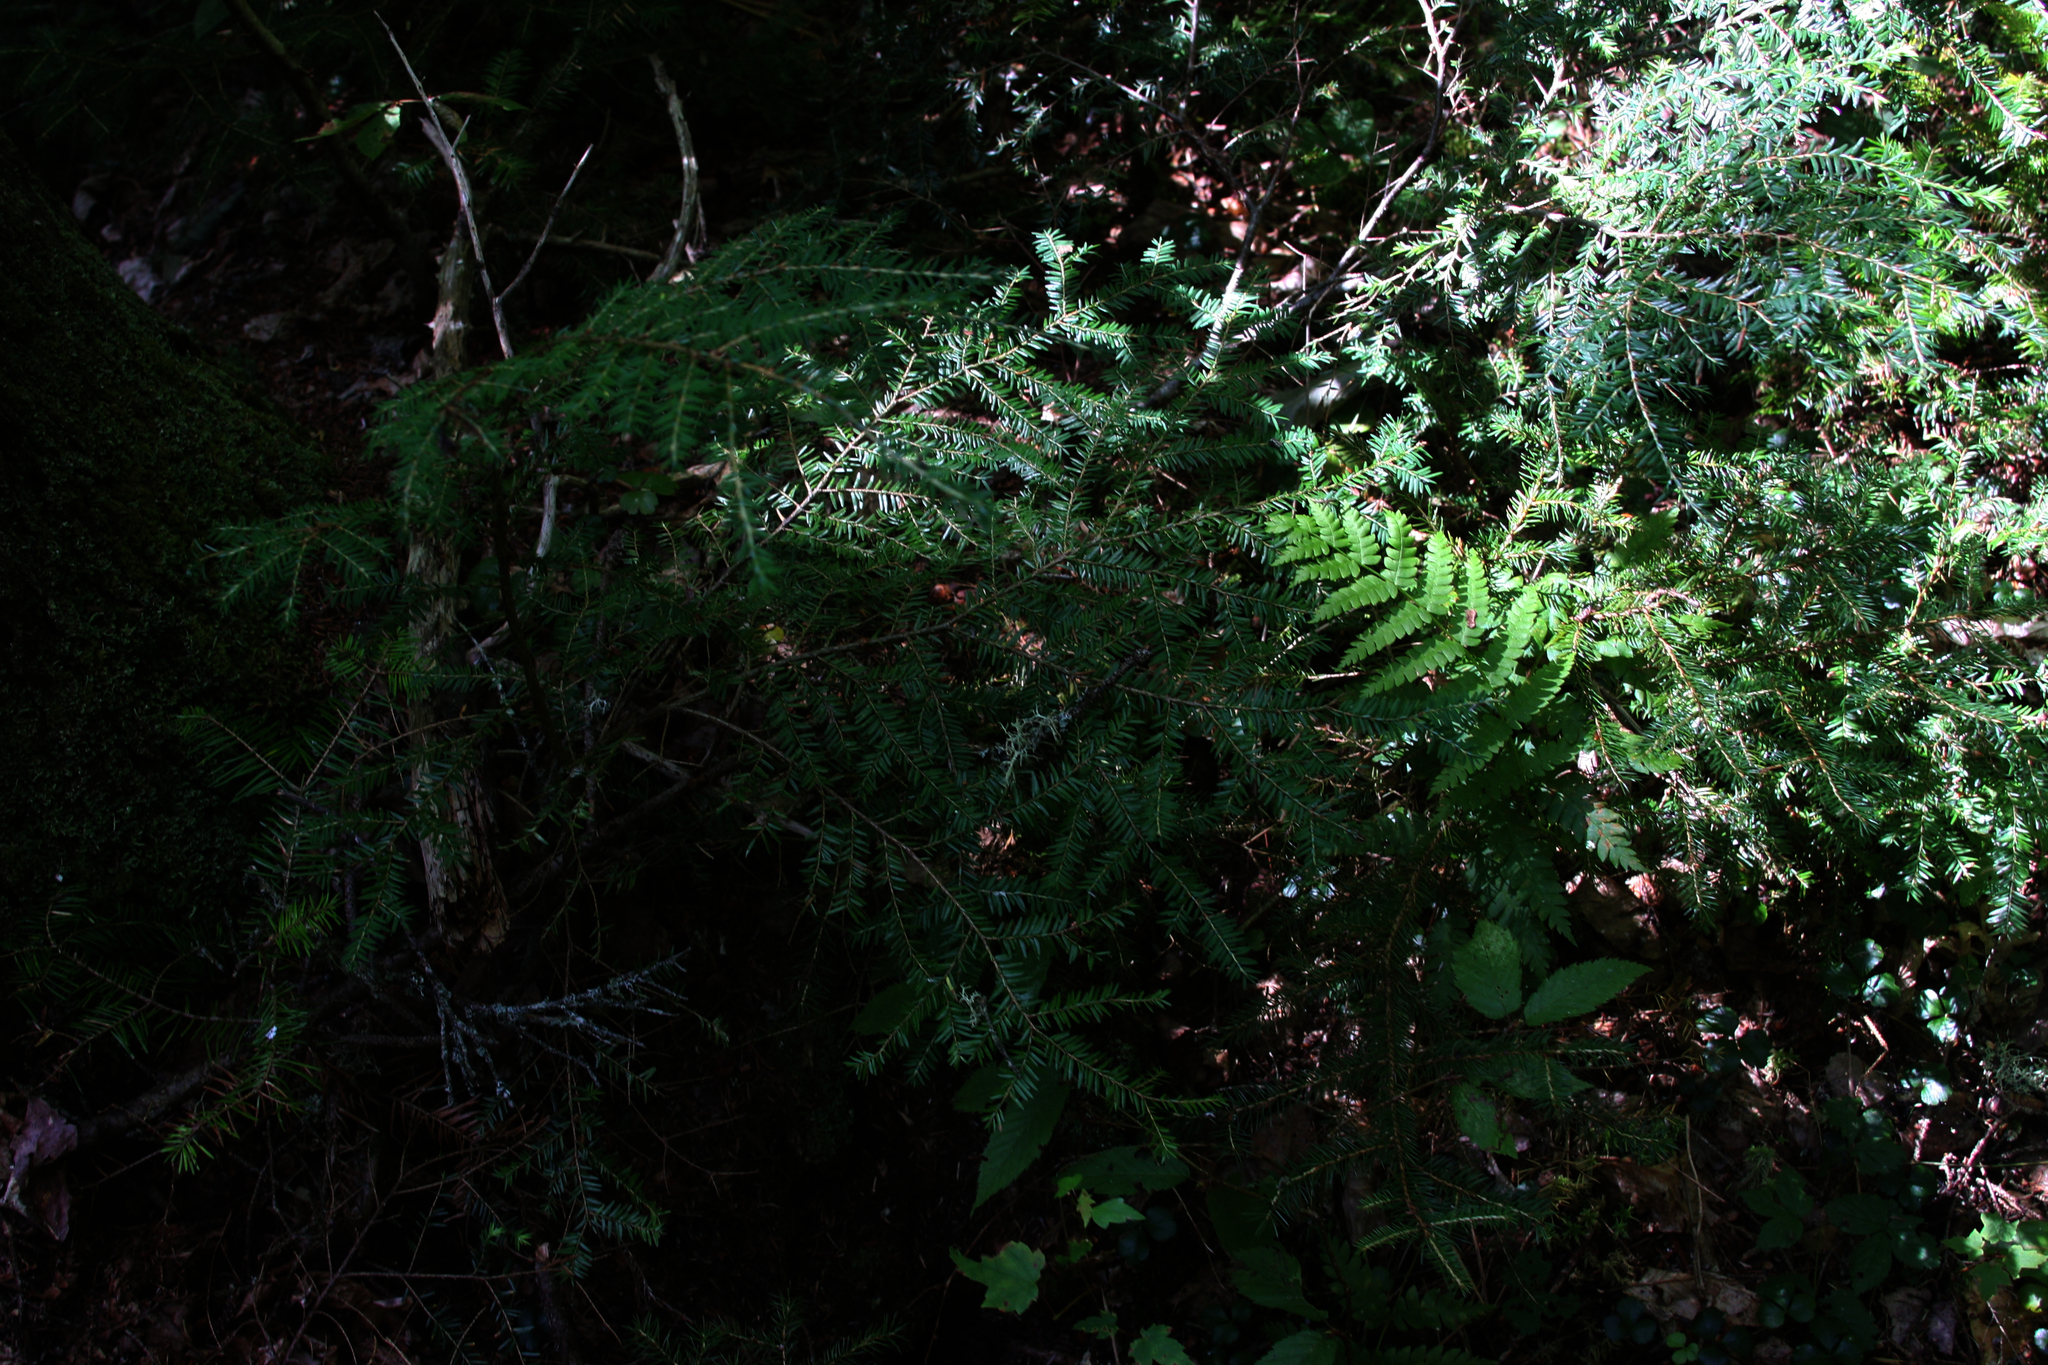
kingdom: Plantae
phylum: Tracheophyta
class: Pinopsida
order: Pinales
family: Pinaceae
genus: Tsuga
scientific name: Tsuga canadensis
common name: Eastern hemlock
